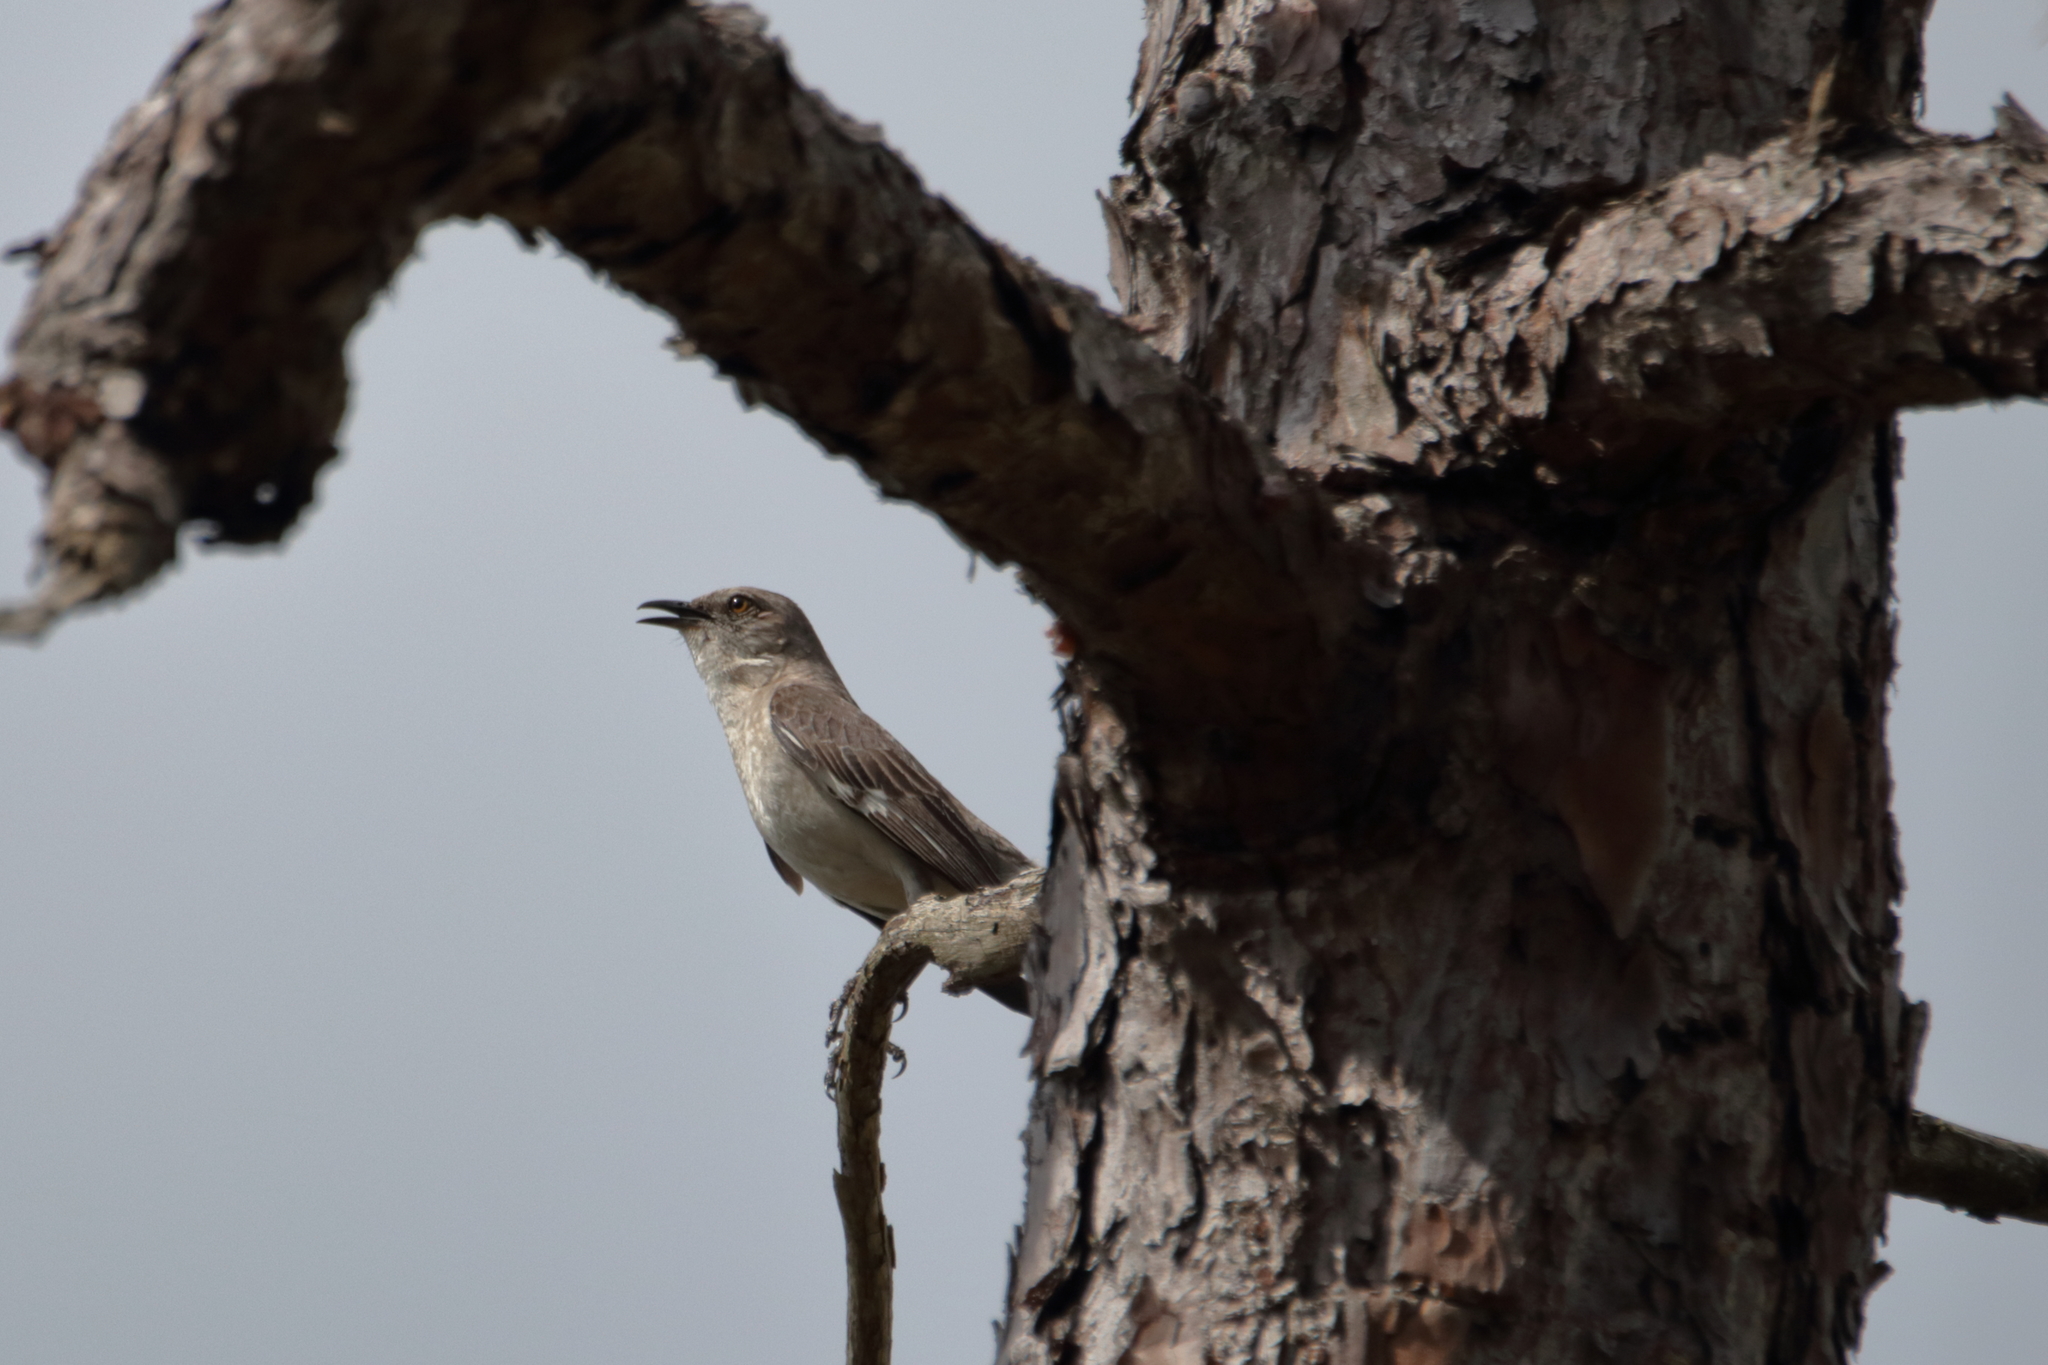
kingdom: Animalia
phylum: Chordata
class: Aves
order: Passeriformes
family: Mimidae
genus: Mimus
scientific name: Mimus polyglottos
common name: Northern mockingbird
